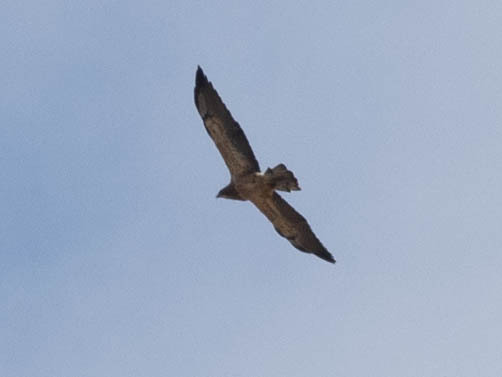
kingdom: Animalia
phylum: Chordata
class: Aves
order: Accipitriformes
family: Accipitridae
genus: Buteo
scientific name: Buteo swainsoni
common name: Swainson's hawk
